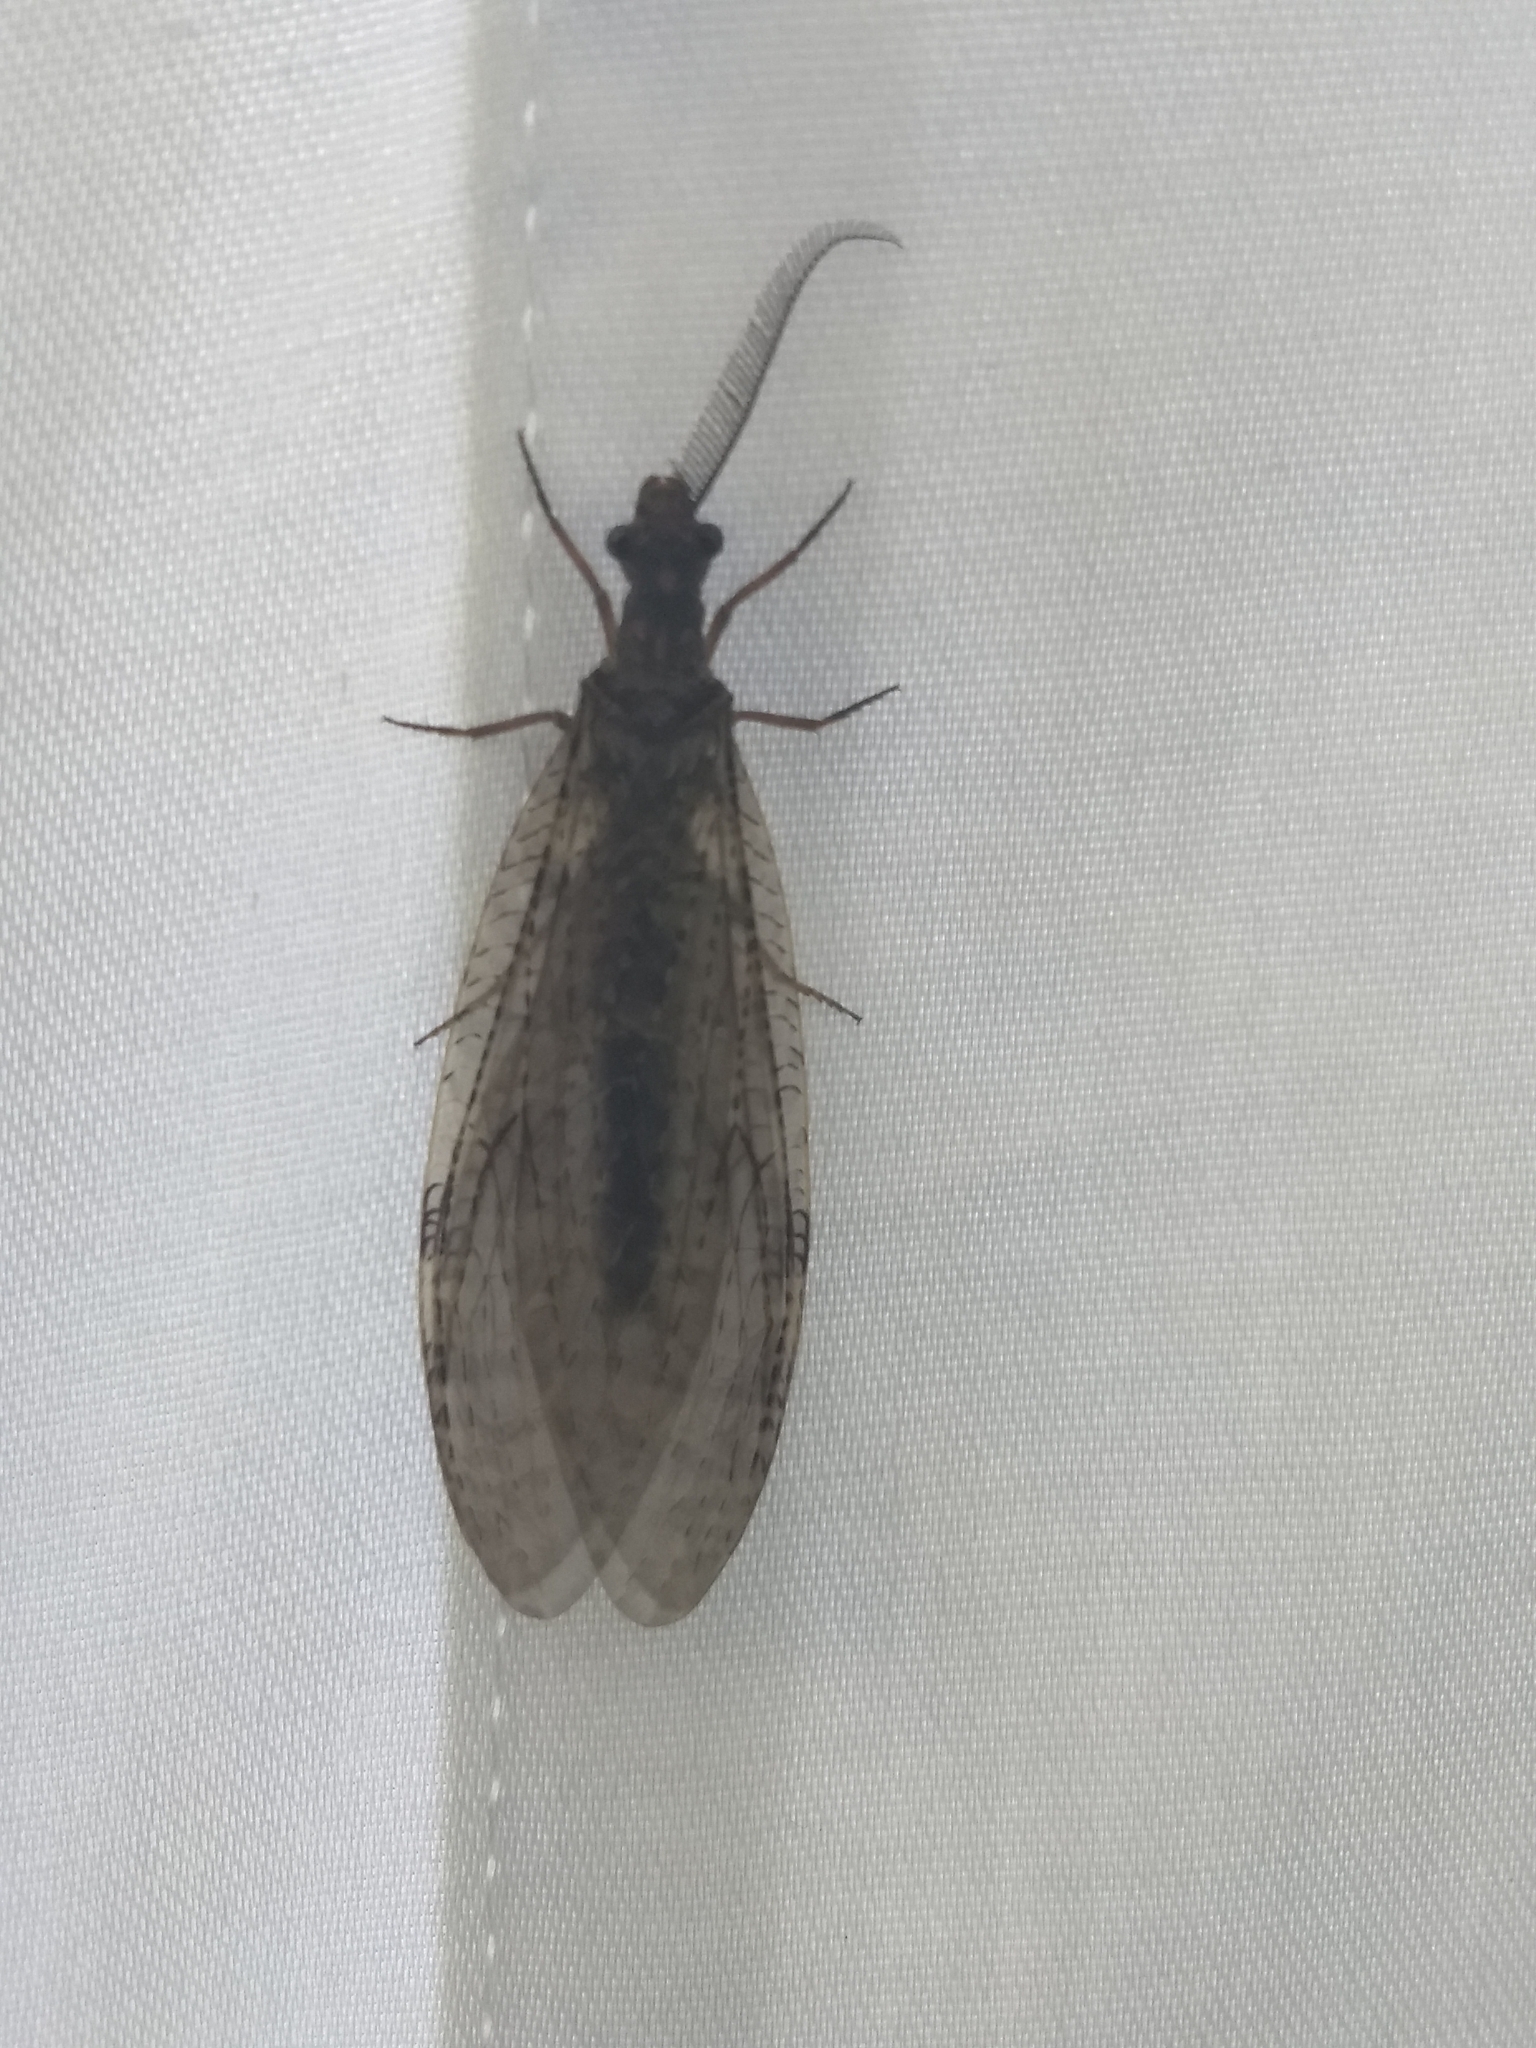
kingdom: Animalia
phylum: Arthropoda
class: Insecta
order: Megaloptera
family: Corydalidae
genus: Chauliodes
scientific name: Chauliodes pectinicornis
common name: Summer fishfly
